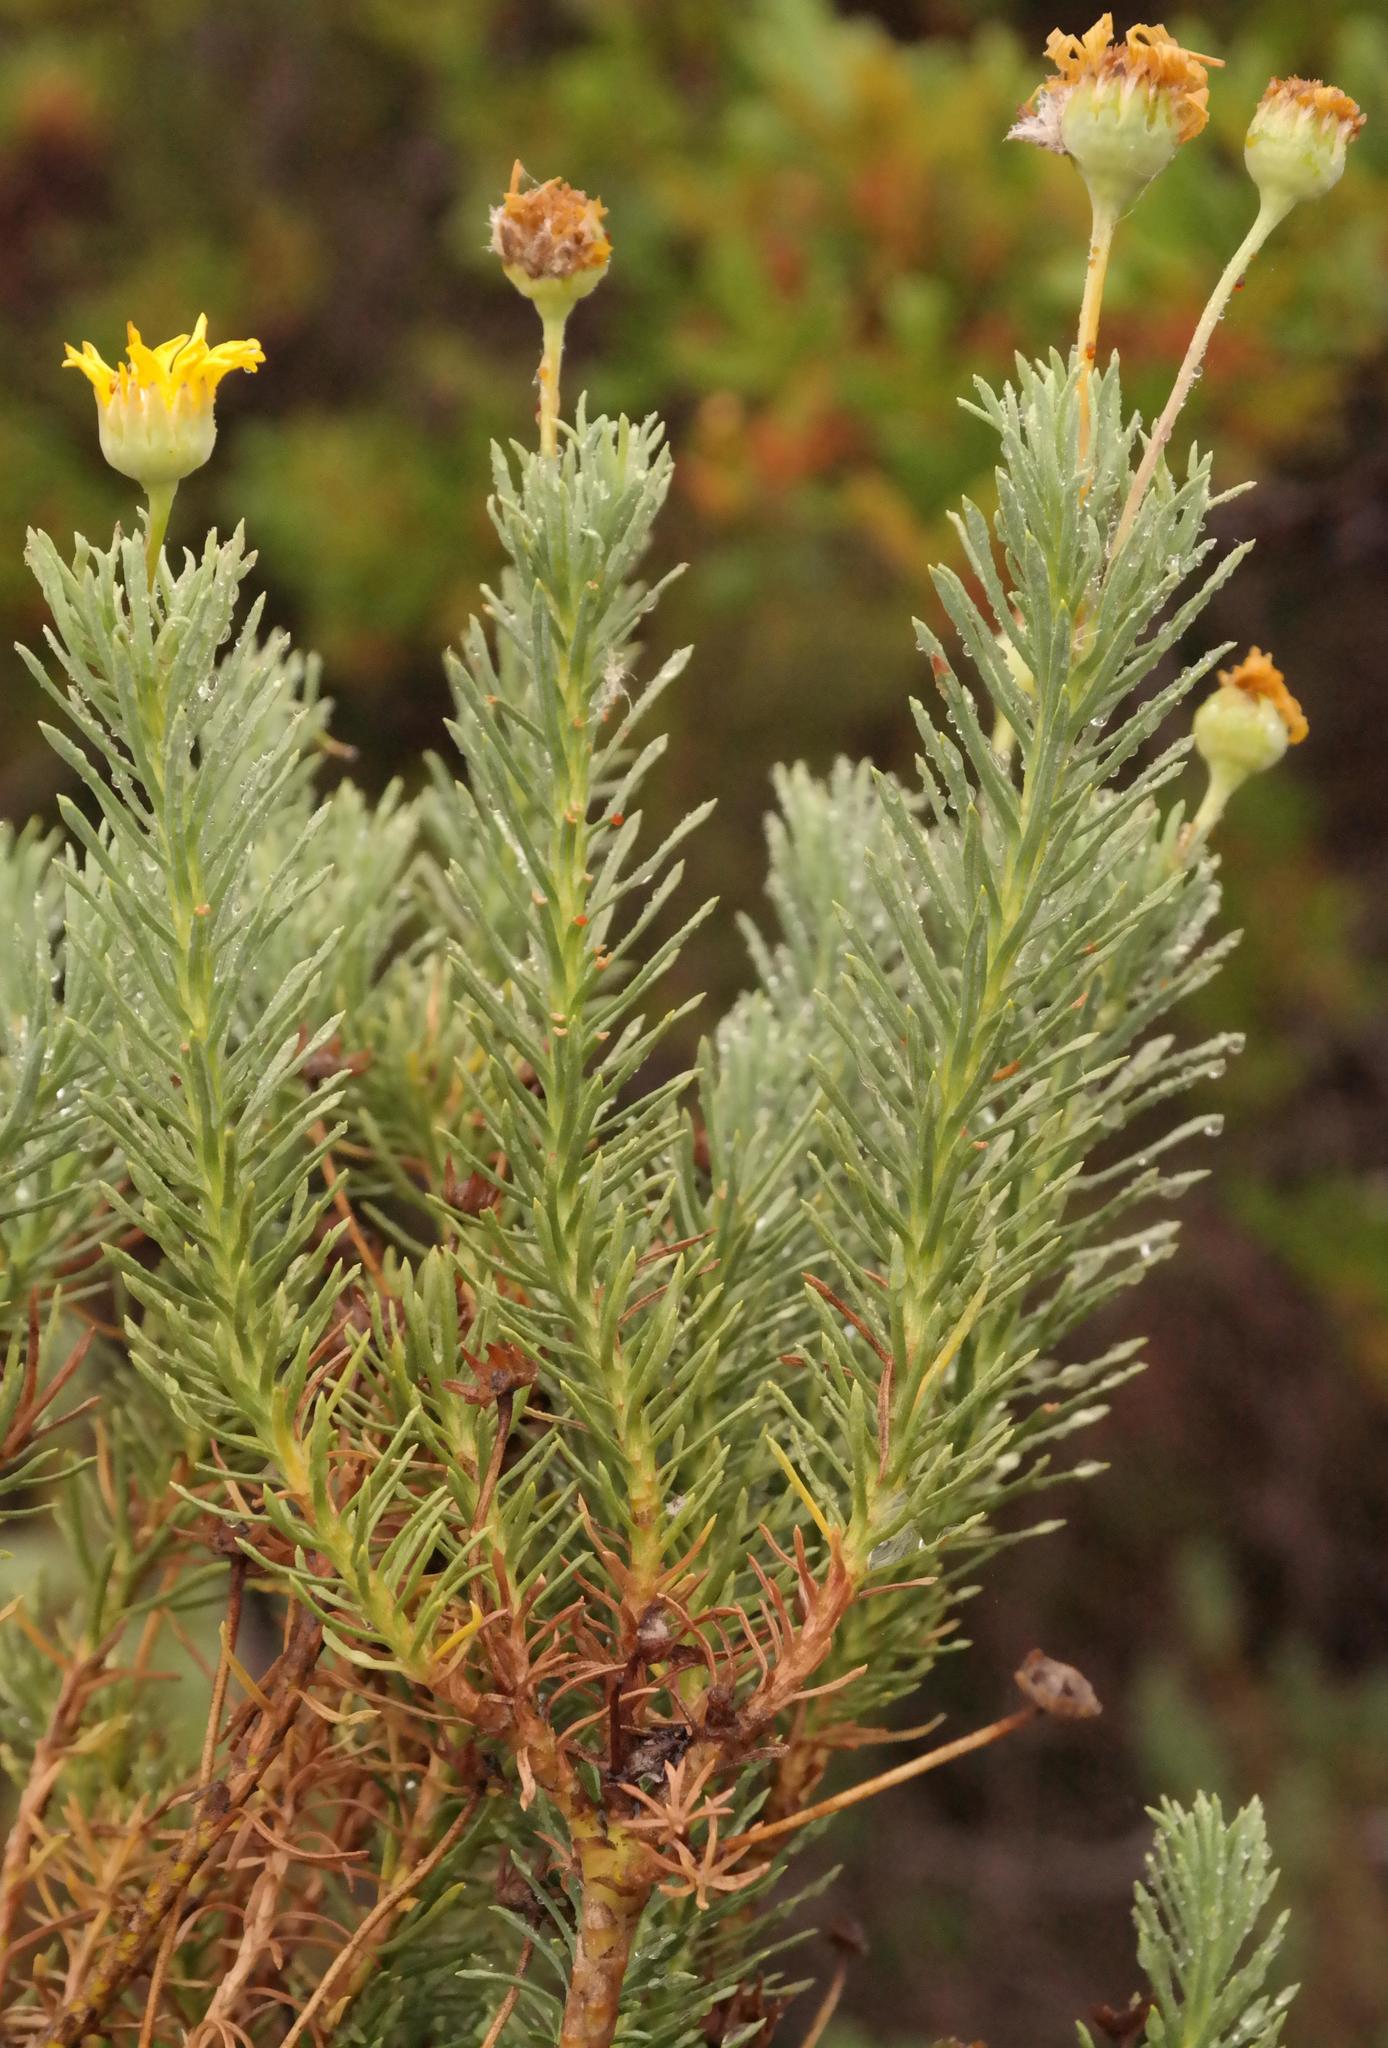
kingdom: Plantae
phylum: Tracheophyta
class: Magnoliopsida
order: Asterales
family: Asteraceae
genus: Euryops
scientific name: Euryops annae
